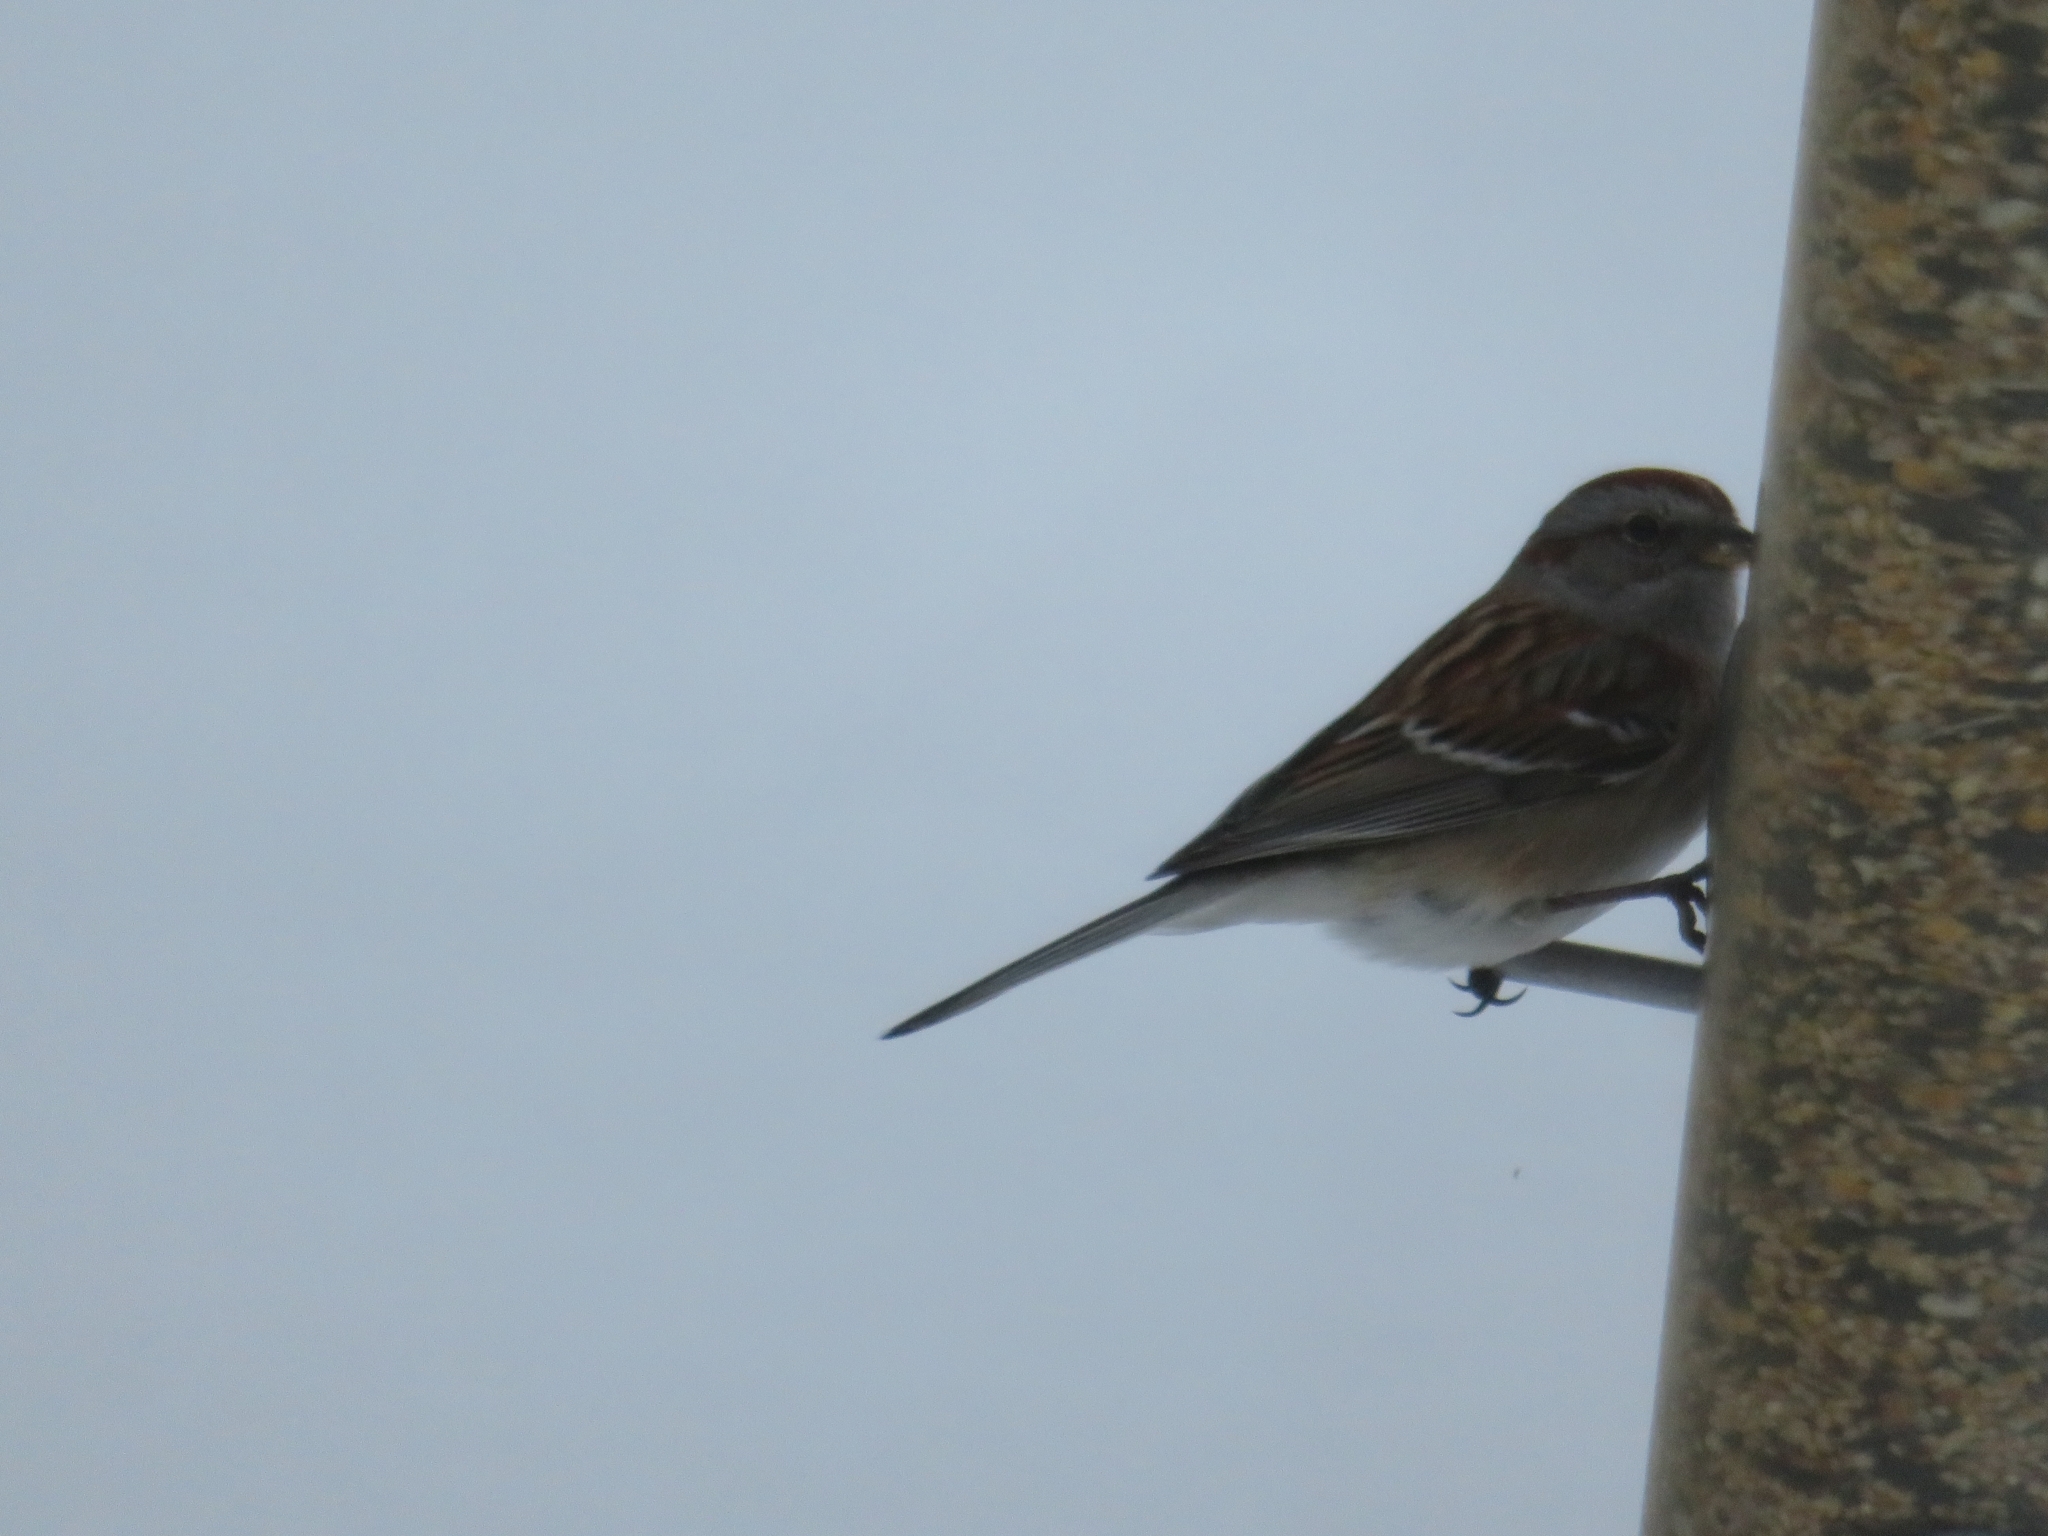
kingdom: Animalia
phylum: Chordata
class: Aves
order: Passeriformes
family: Passerellidae
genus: Spizelloides
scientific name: Spizelloides arborea
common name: American tree sparrow
